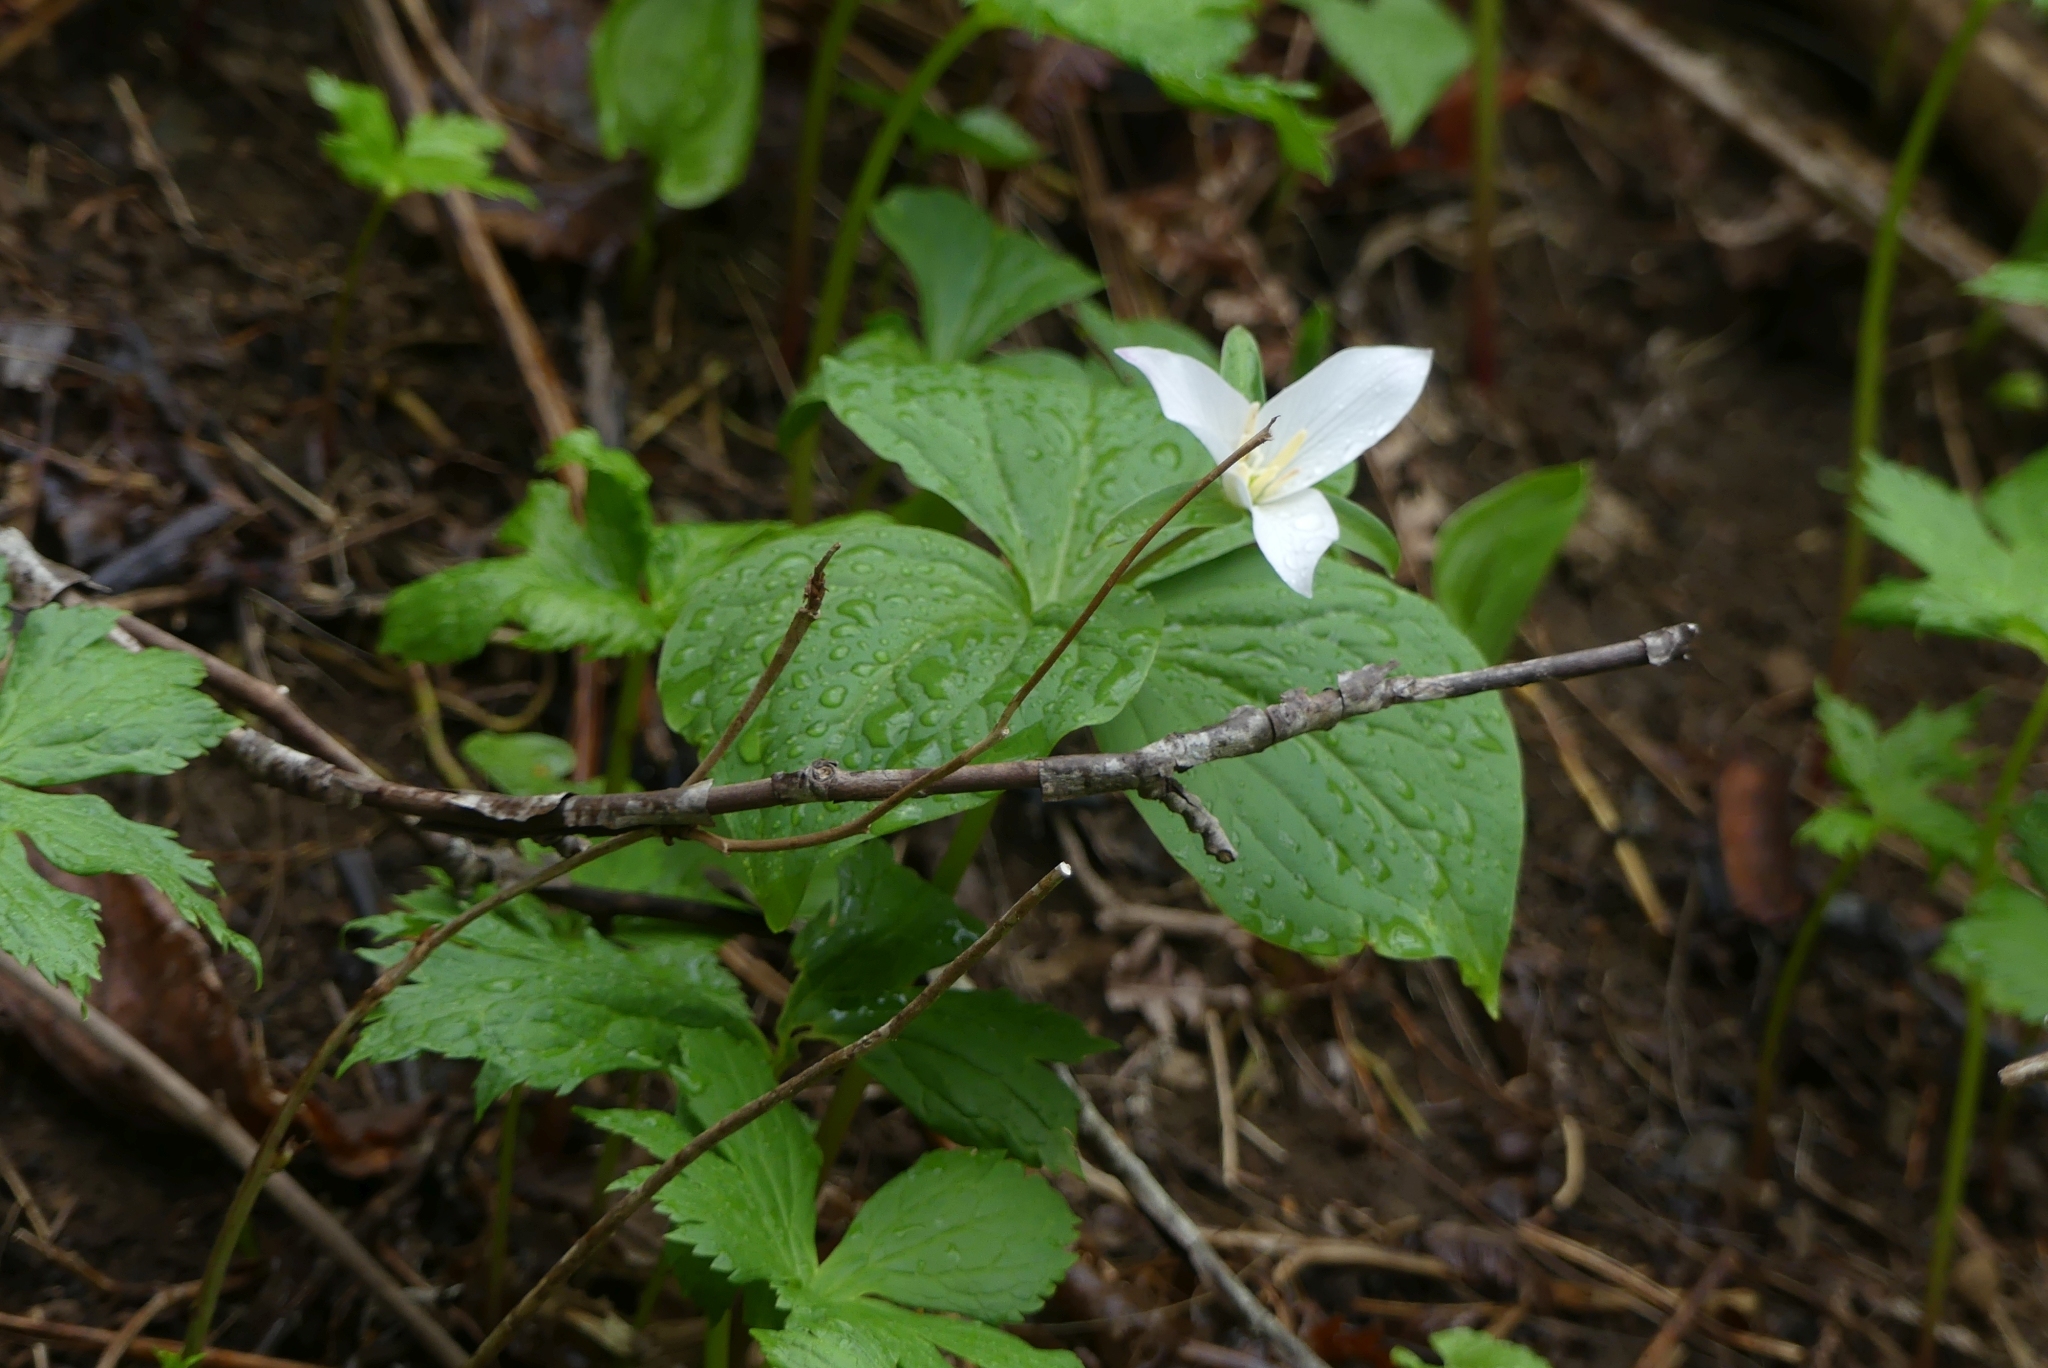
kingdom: Plantae
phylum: Tracheophyta
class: Liliopsida
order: Liliales
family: Melanthiaceae
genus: Trillium
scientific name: Trillium ovatum
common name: Pacific trillium
